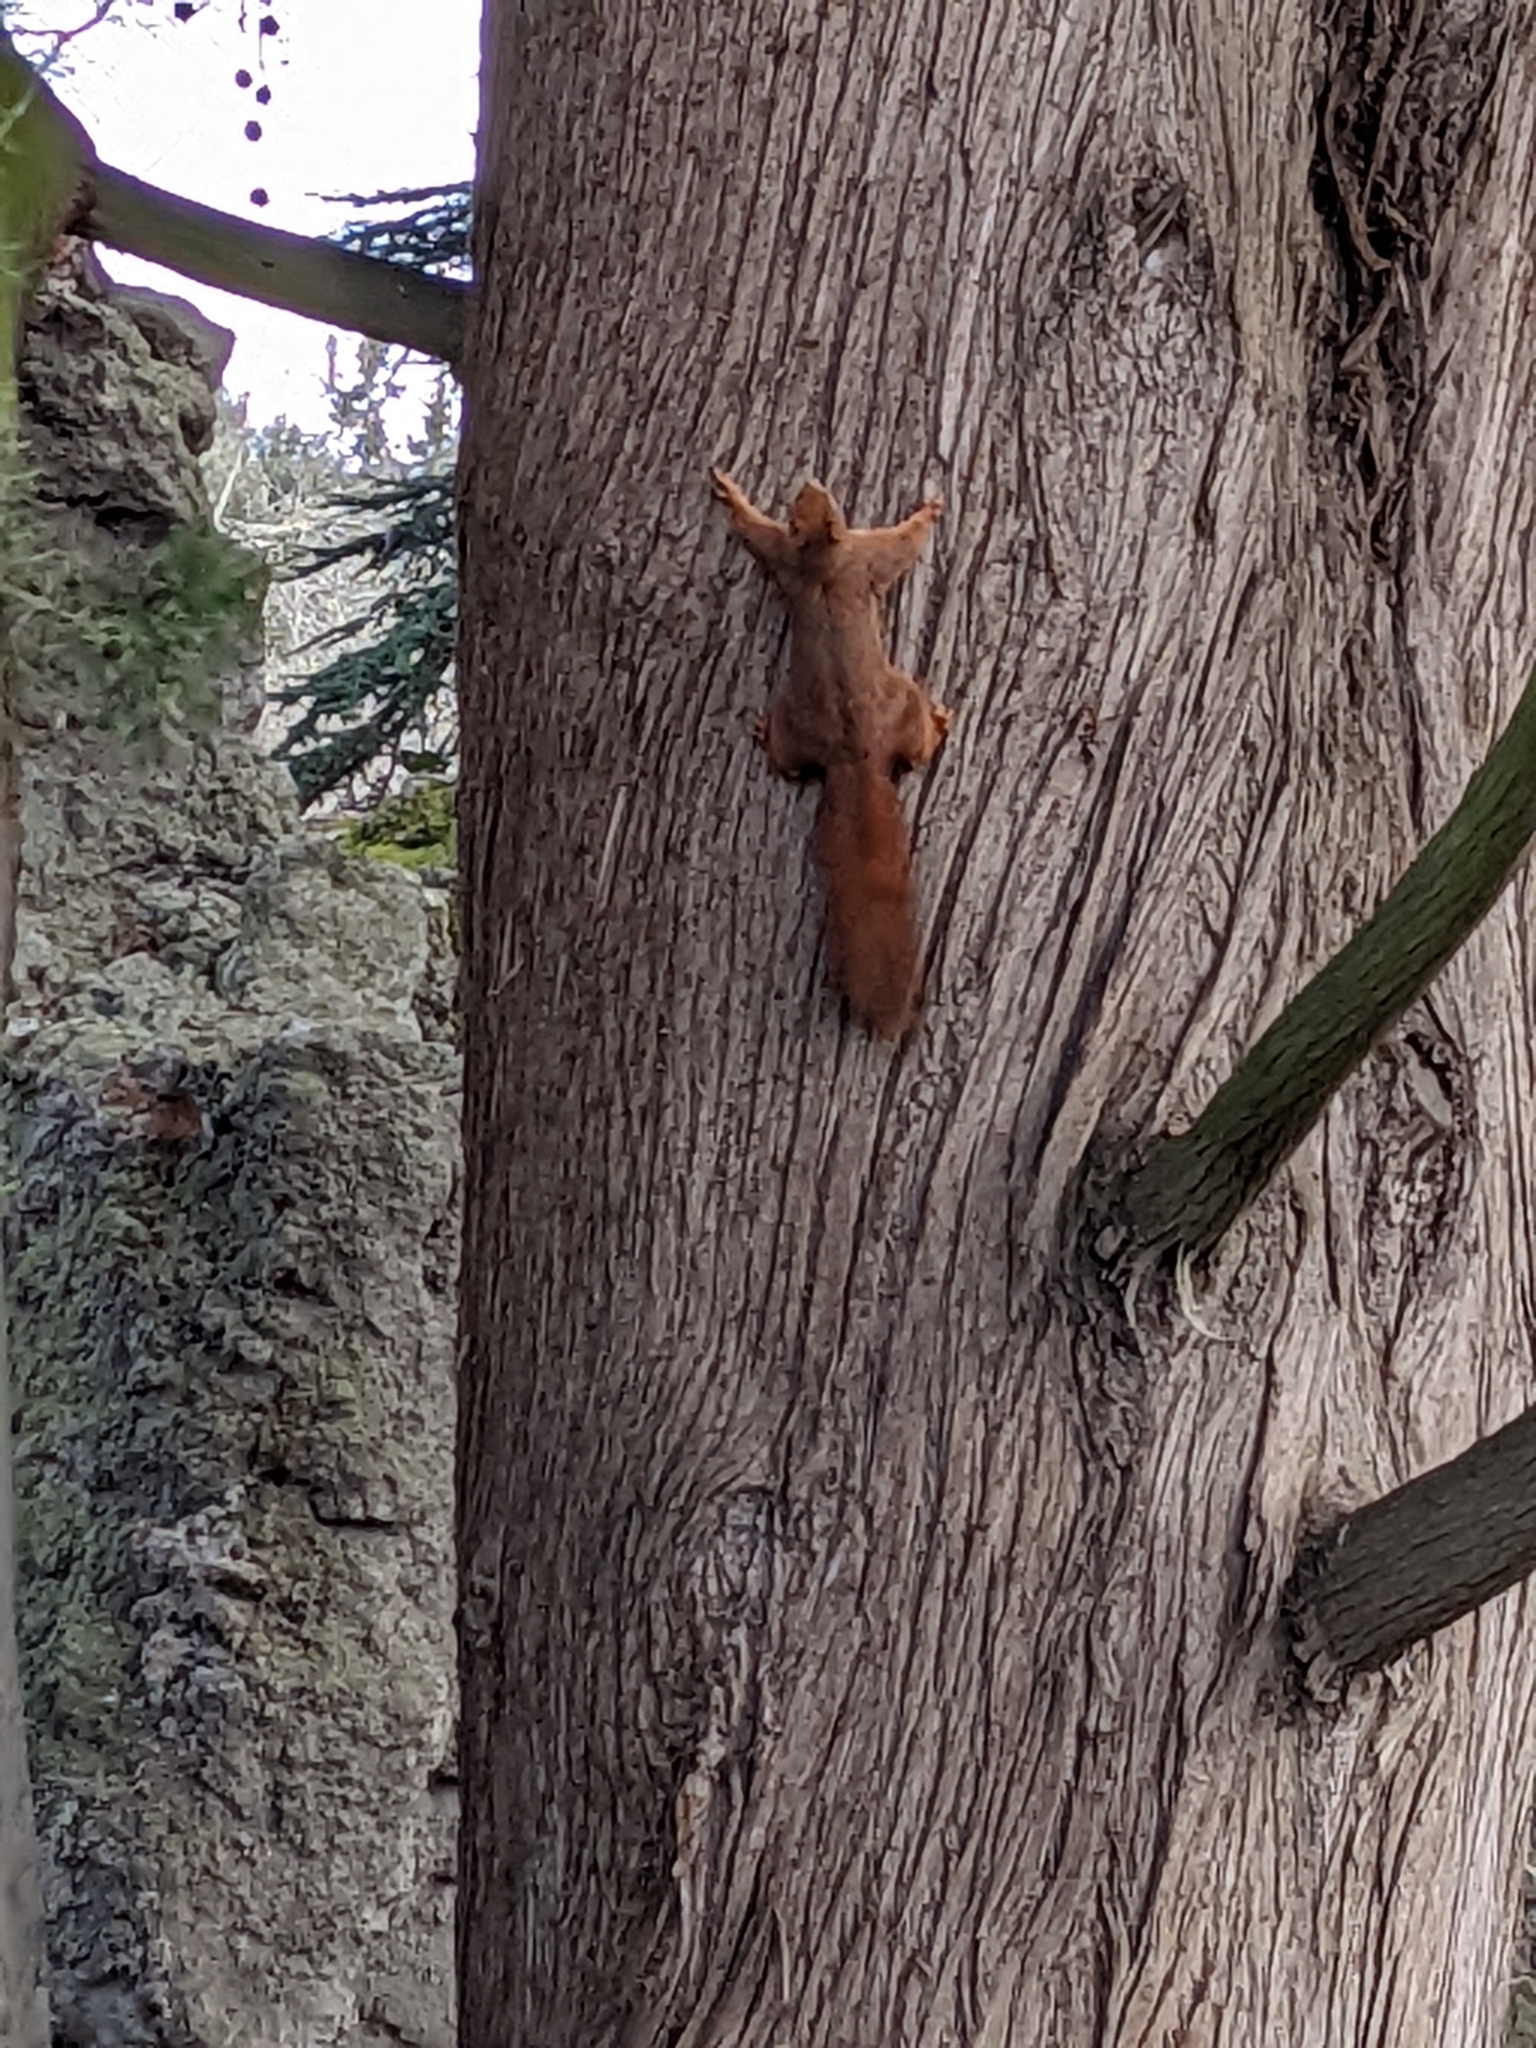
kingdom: Animalia
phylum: Chordata
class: Mammalia
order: Rodentia
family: Sciuridae
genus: Sciurus
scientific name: Sciurus vulgaris
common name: Eurasian red squirrel
